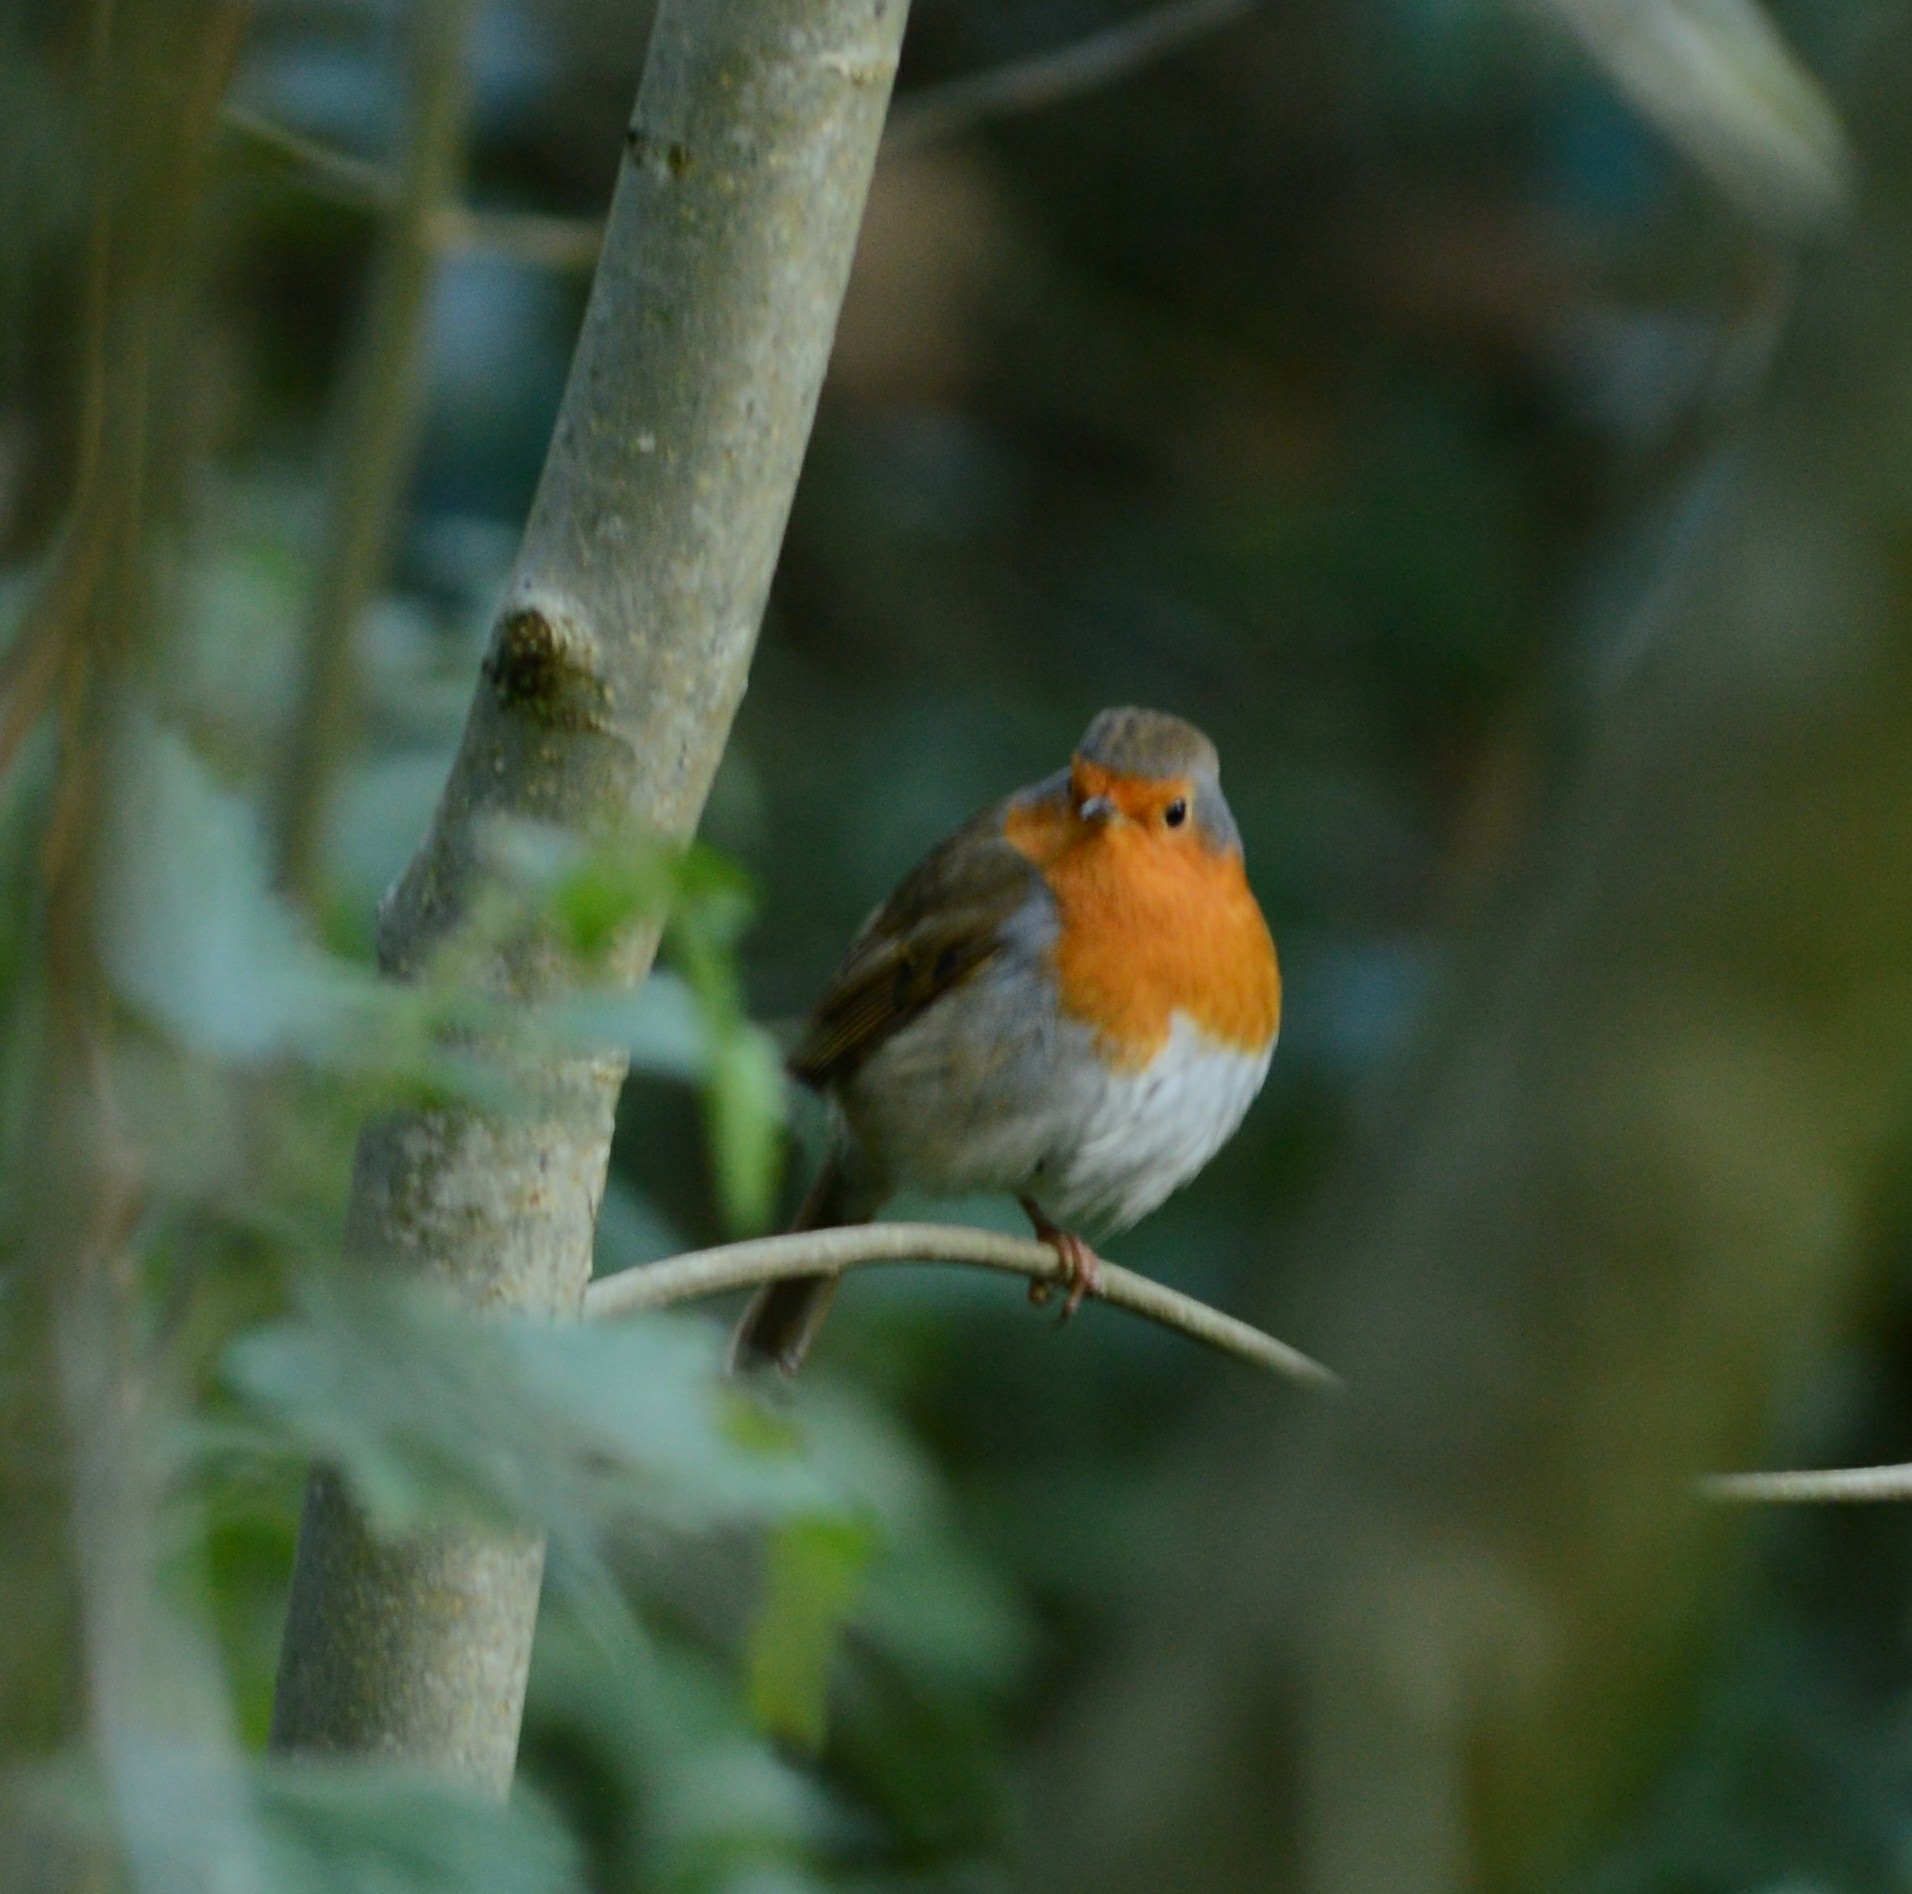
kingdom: Animalia
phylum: Chordata
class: Aves
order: Passeriformes
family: Muscicapidae
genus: Erithacus
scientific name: Erithacus rubecula
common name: European robin
